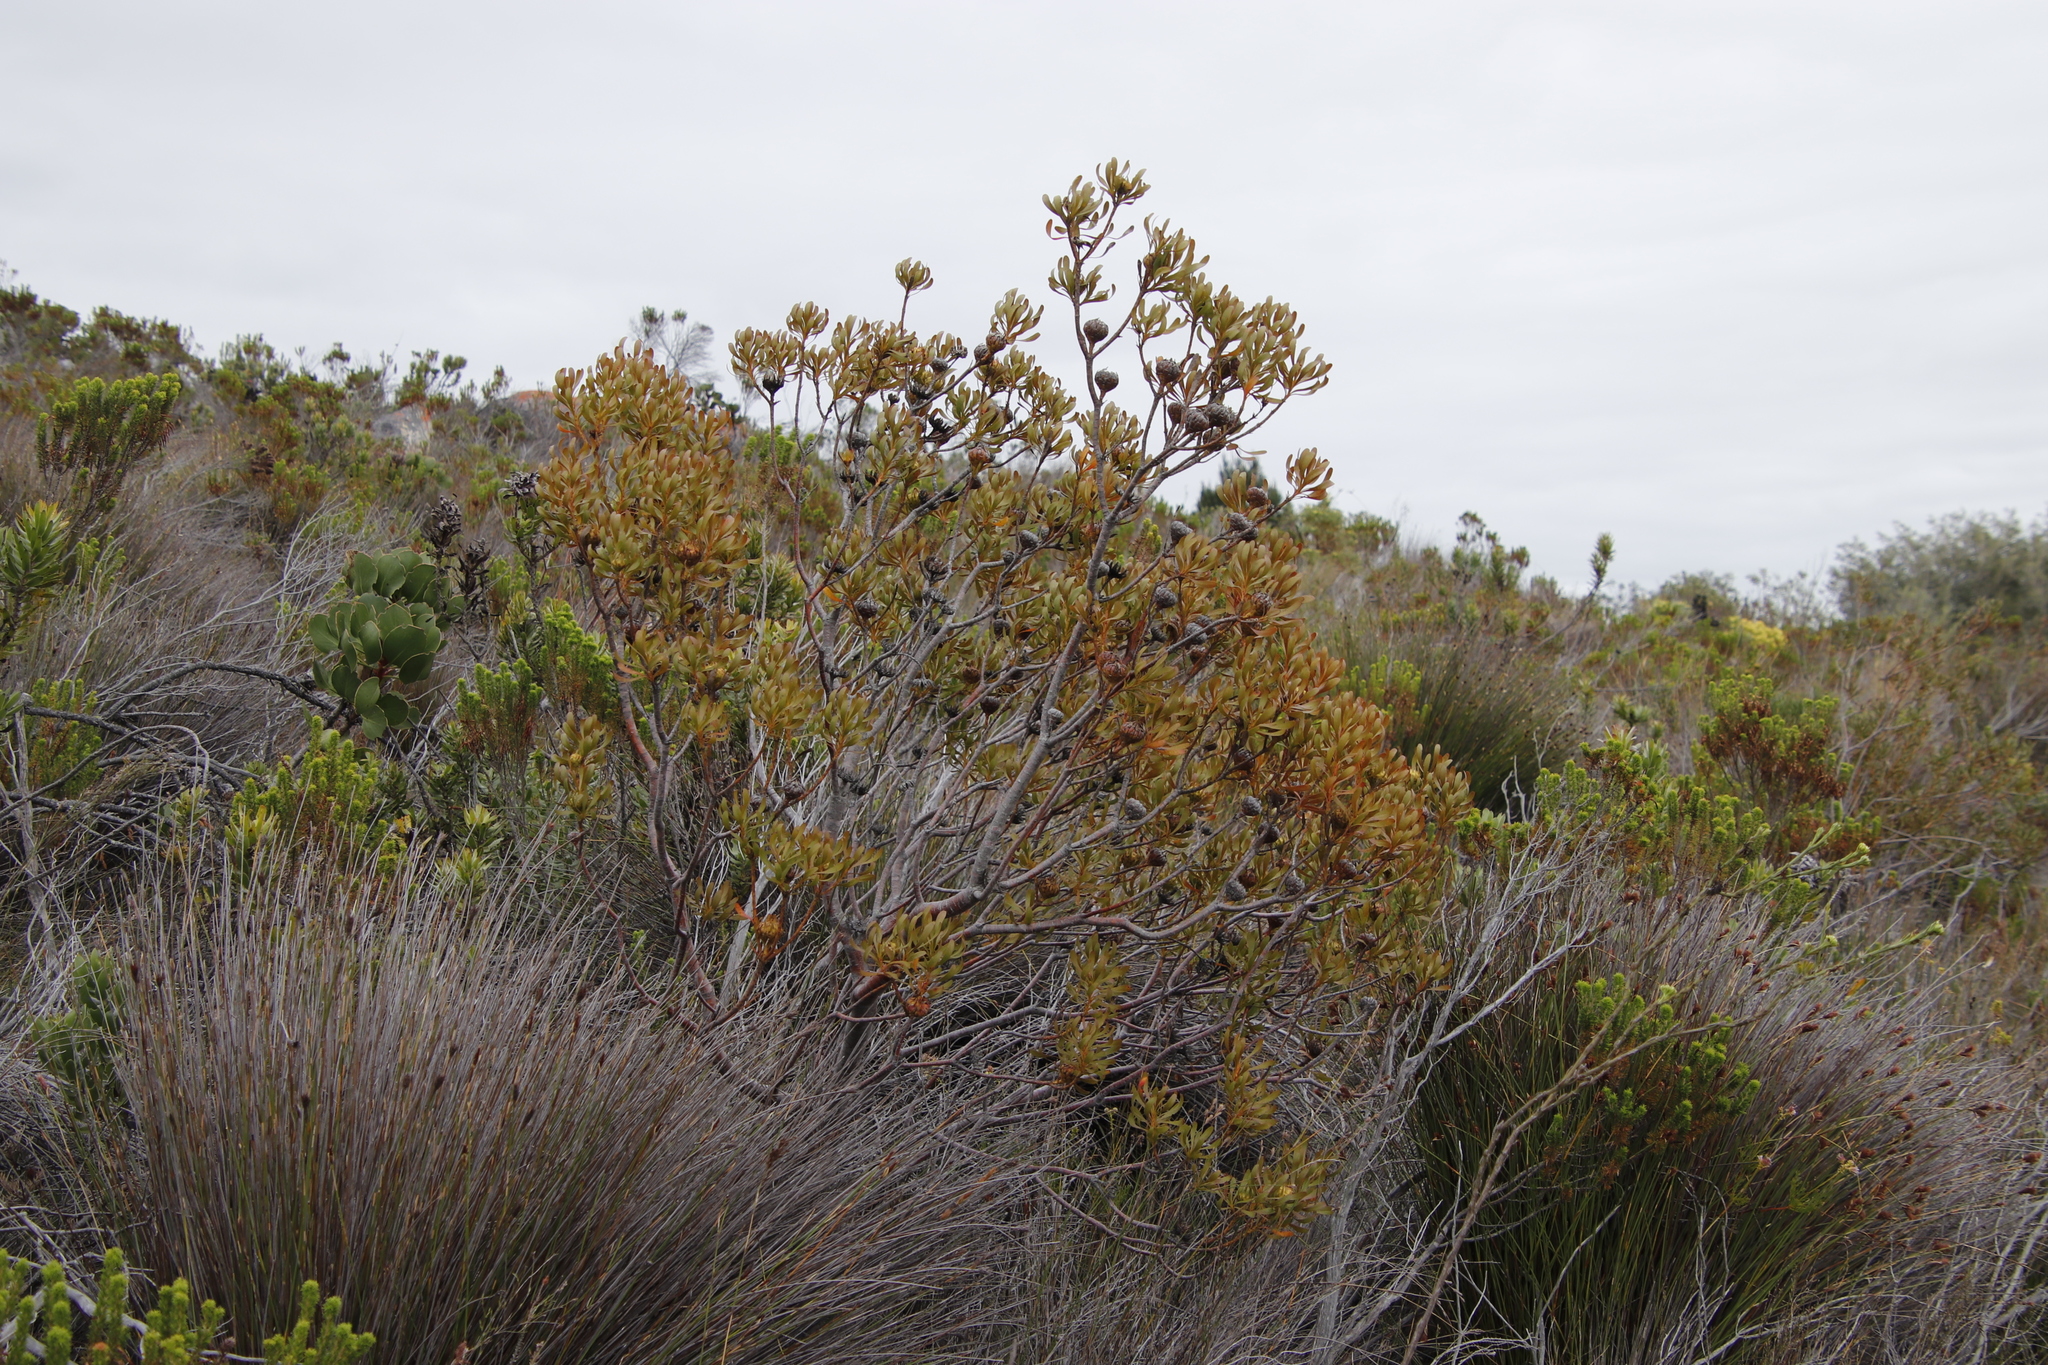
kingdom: Plantae
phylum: Tracheophyta
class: Magnoliopsida
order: Proteales
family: Proteaceae
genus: Aulax
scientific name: Aulax umbellata
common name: Broad-leaf featherbush
